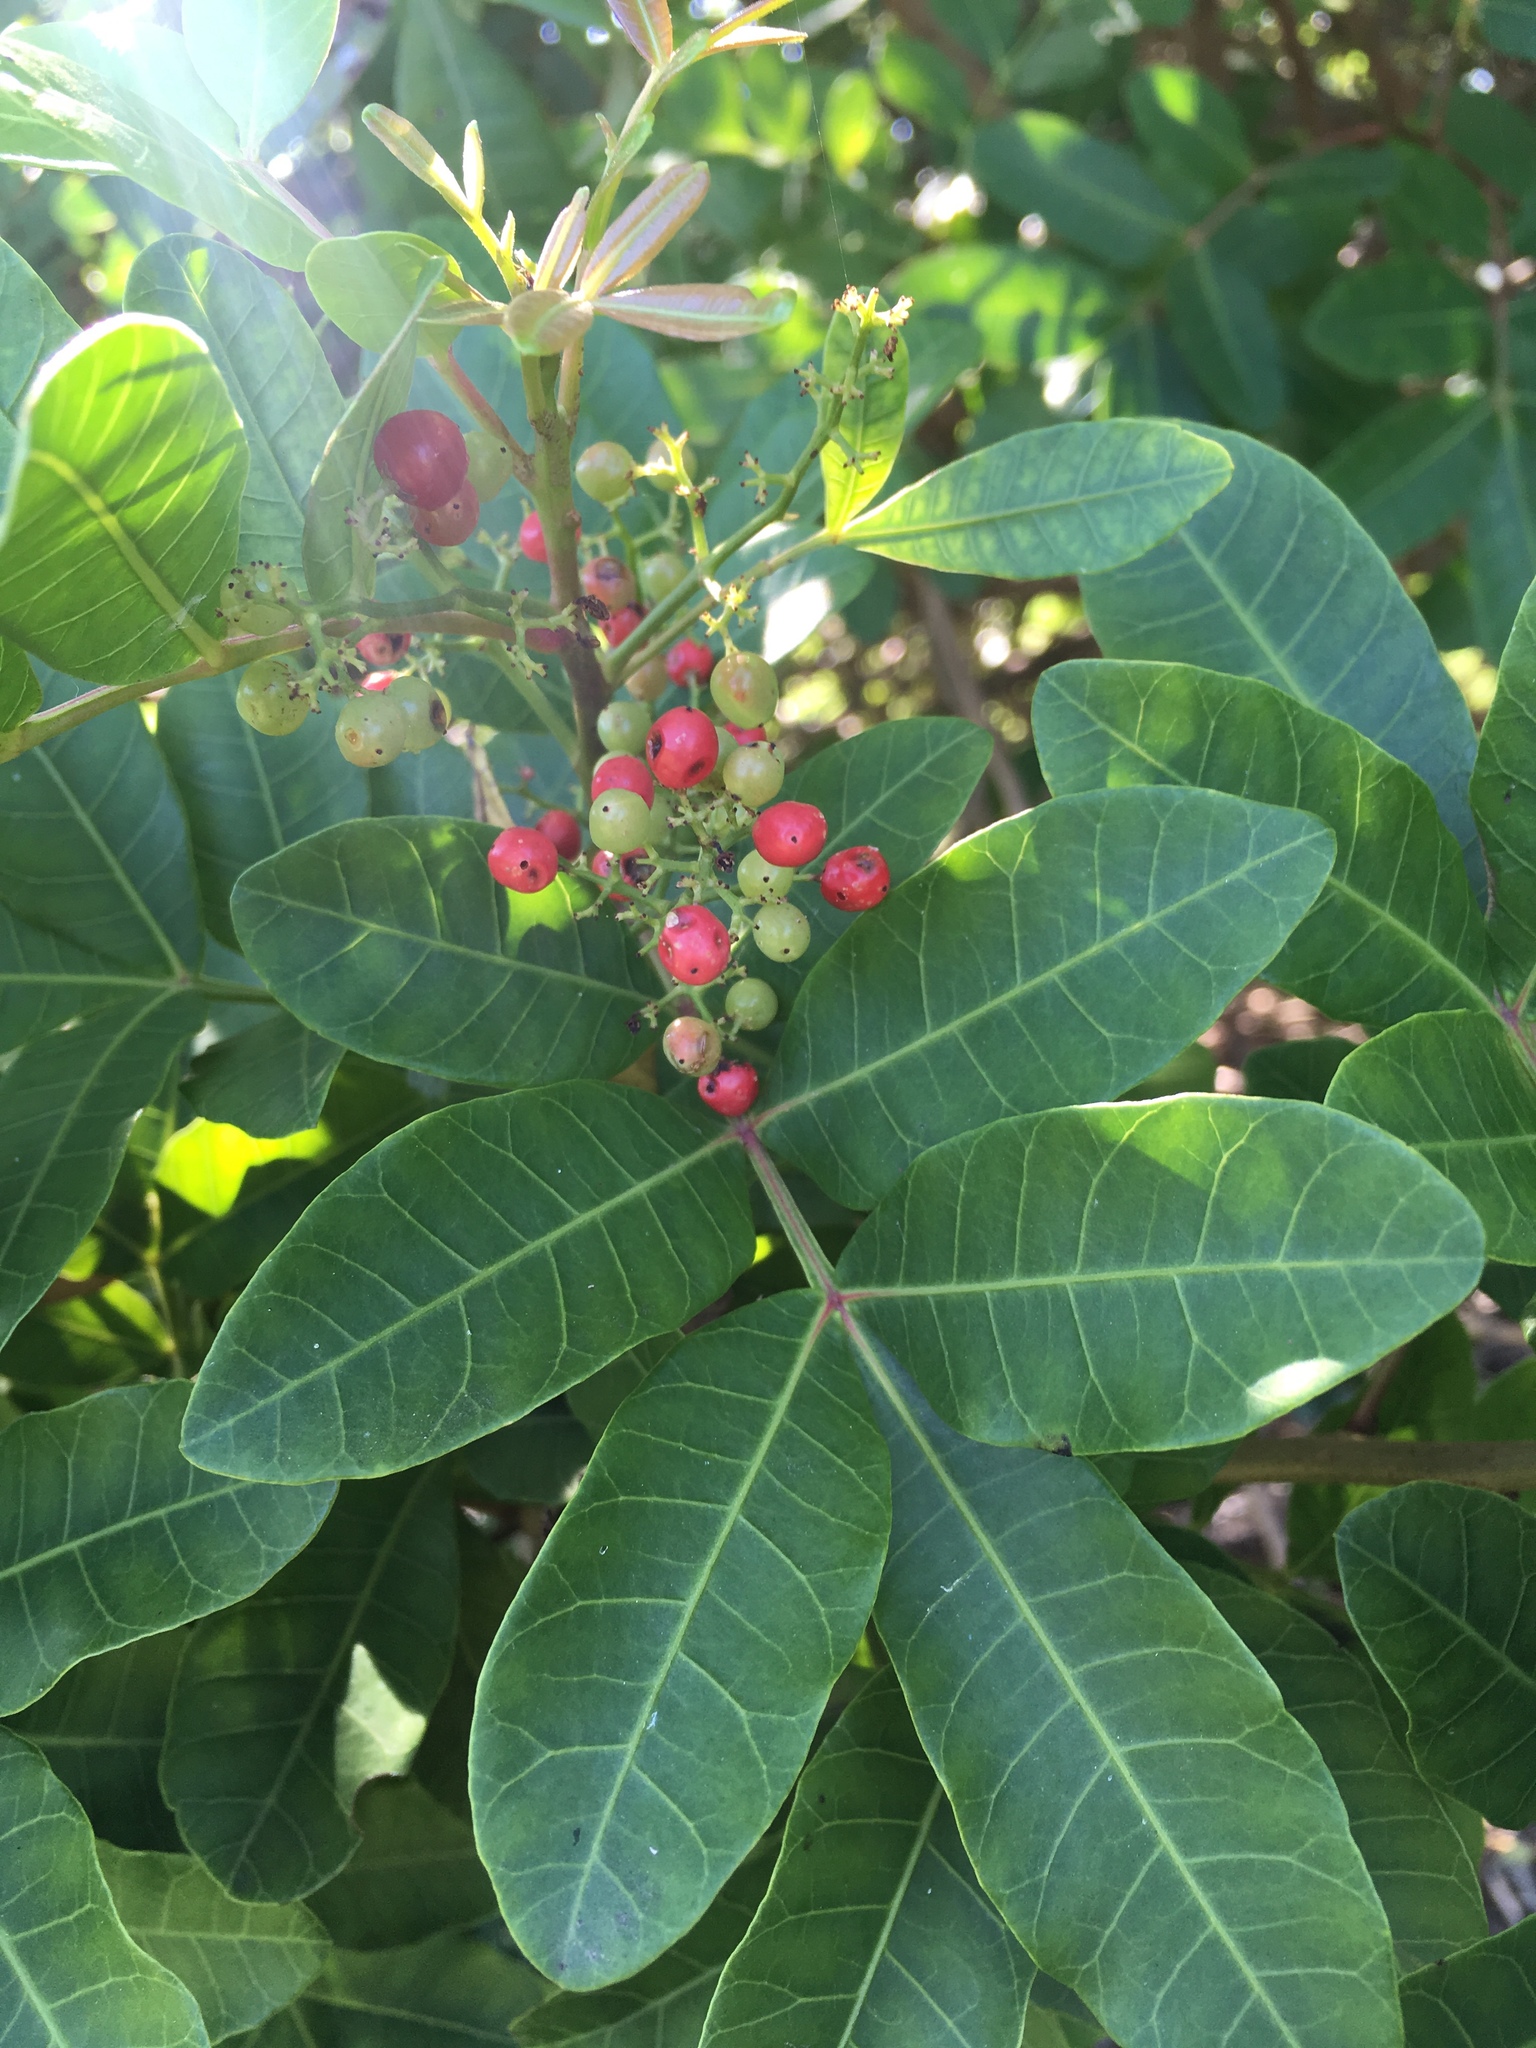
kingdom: Plantae
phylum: Tracheophyta
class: Magnoliopsida
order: Sapindales
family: Anacardiaceae
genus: Schinus
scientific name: Schinus terebinthifolia
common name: Brazilian peppertree
